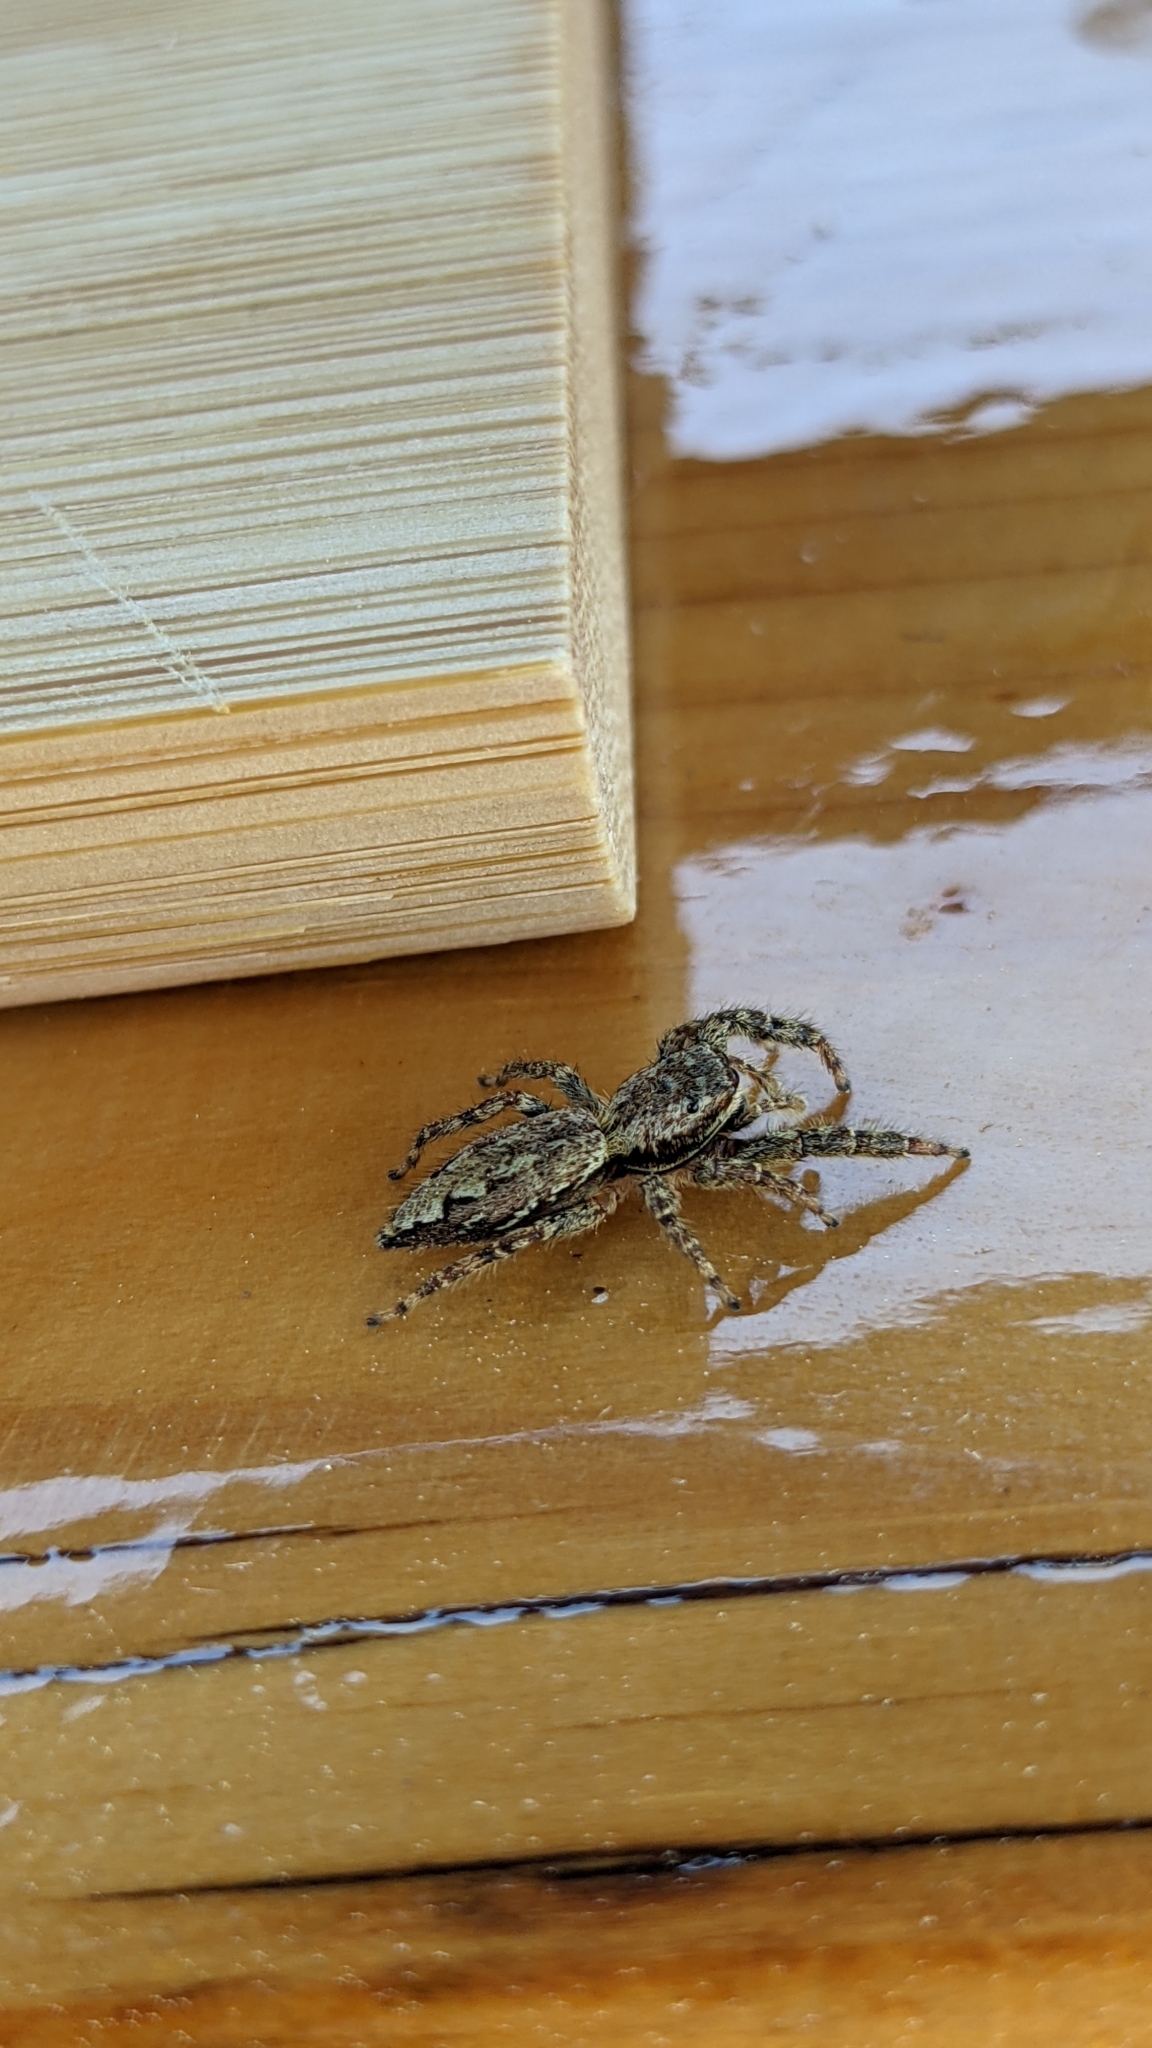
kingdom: Animalia
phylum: Arthropoda
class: Arachnida
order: Araneae
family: Salticidae
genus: Marpissa
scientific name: Marpissa muscosa
